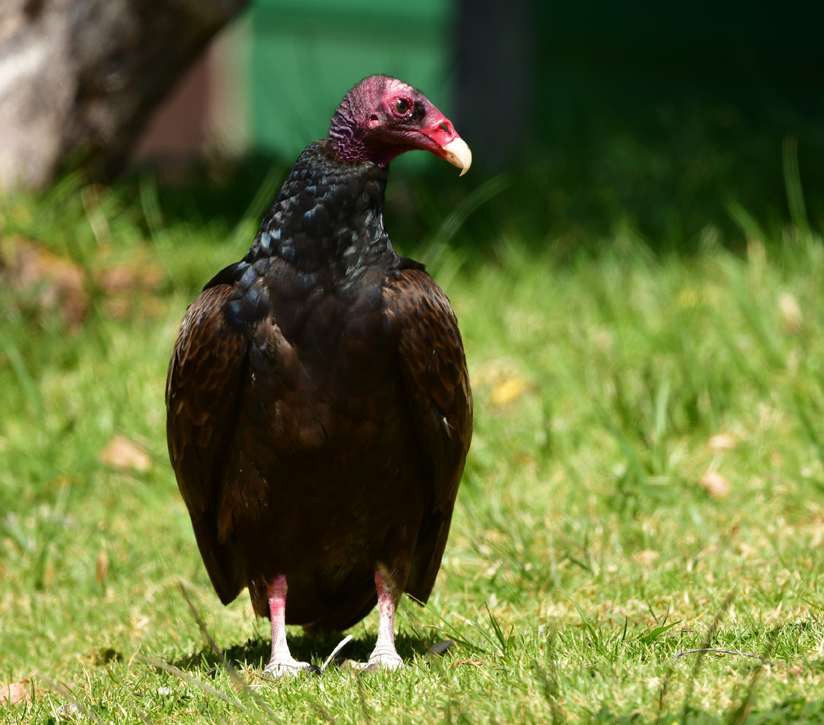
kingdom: Animalia
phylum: Chordata
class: Aves
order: Accipitriformes
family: Cathartidae
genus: Cathartes
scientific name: Cathartes aura
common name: Turkey vulture
